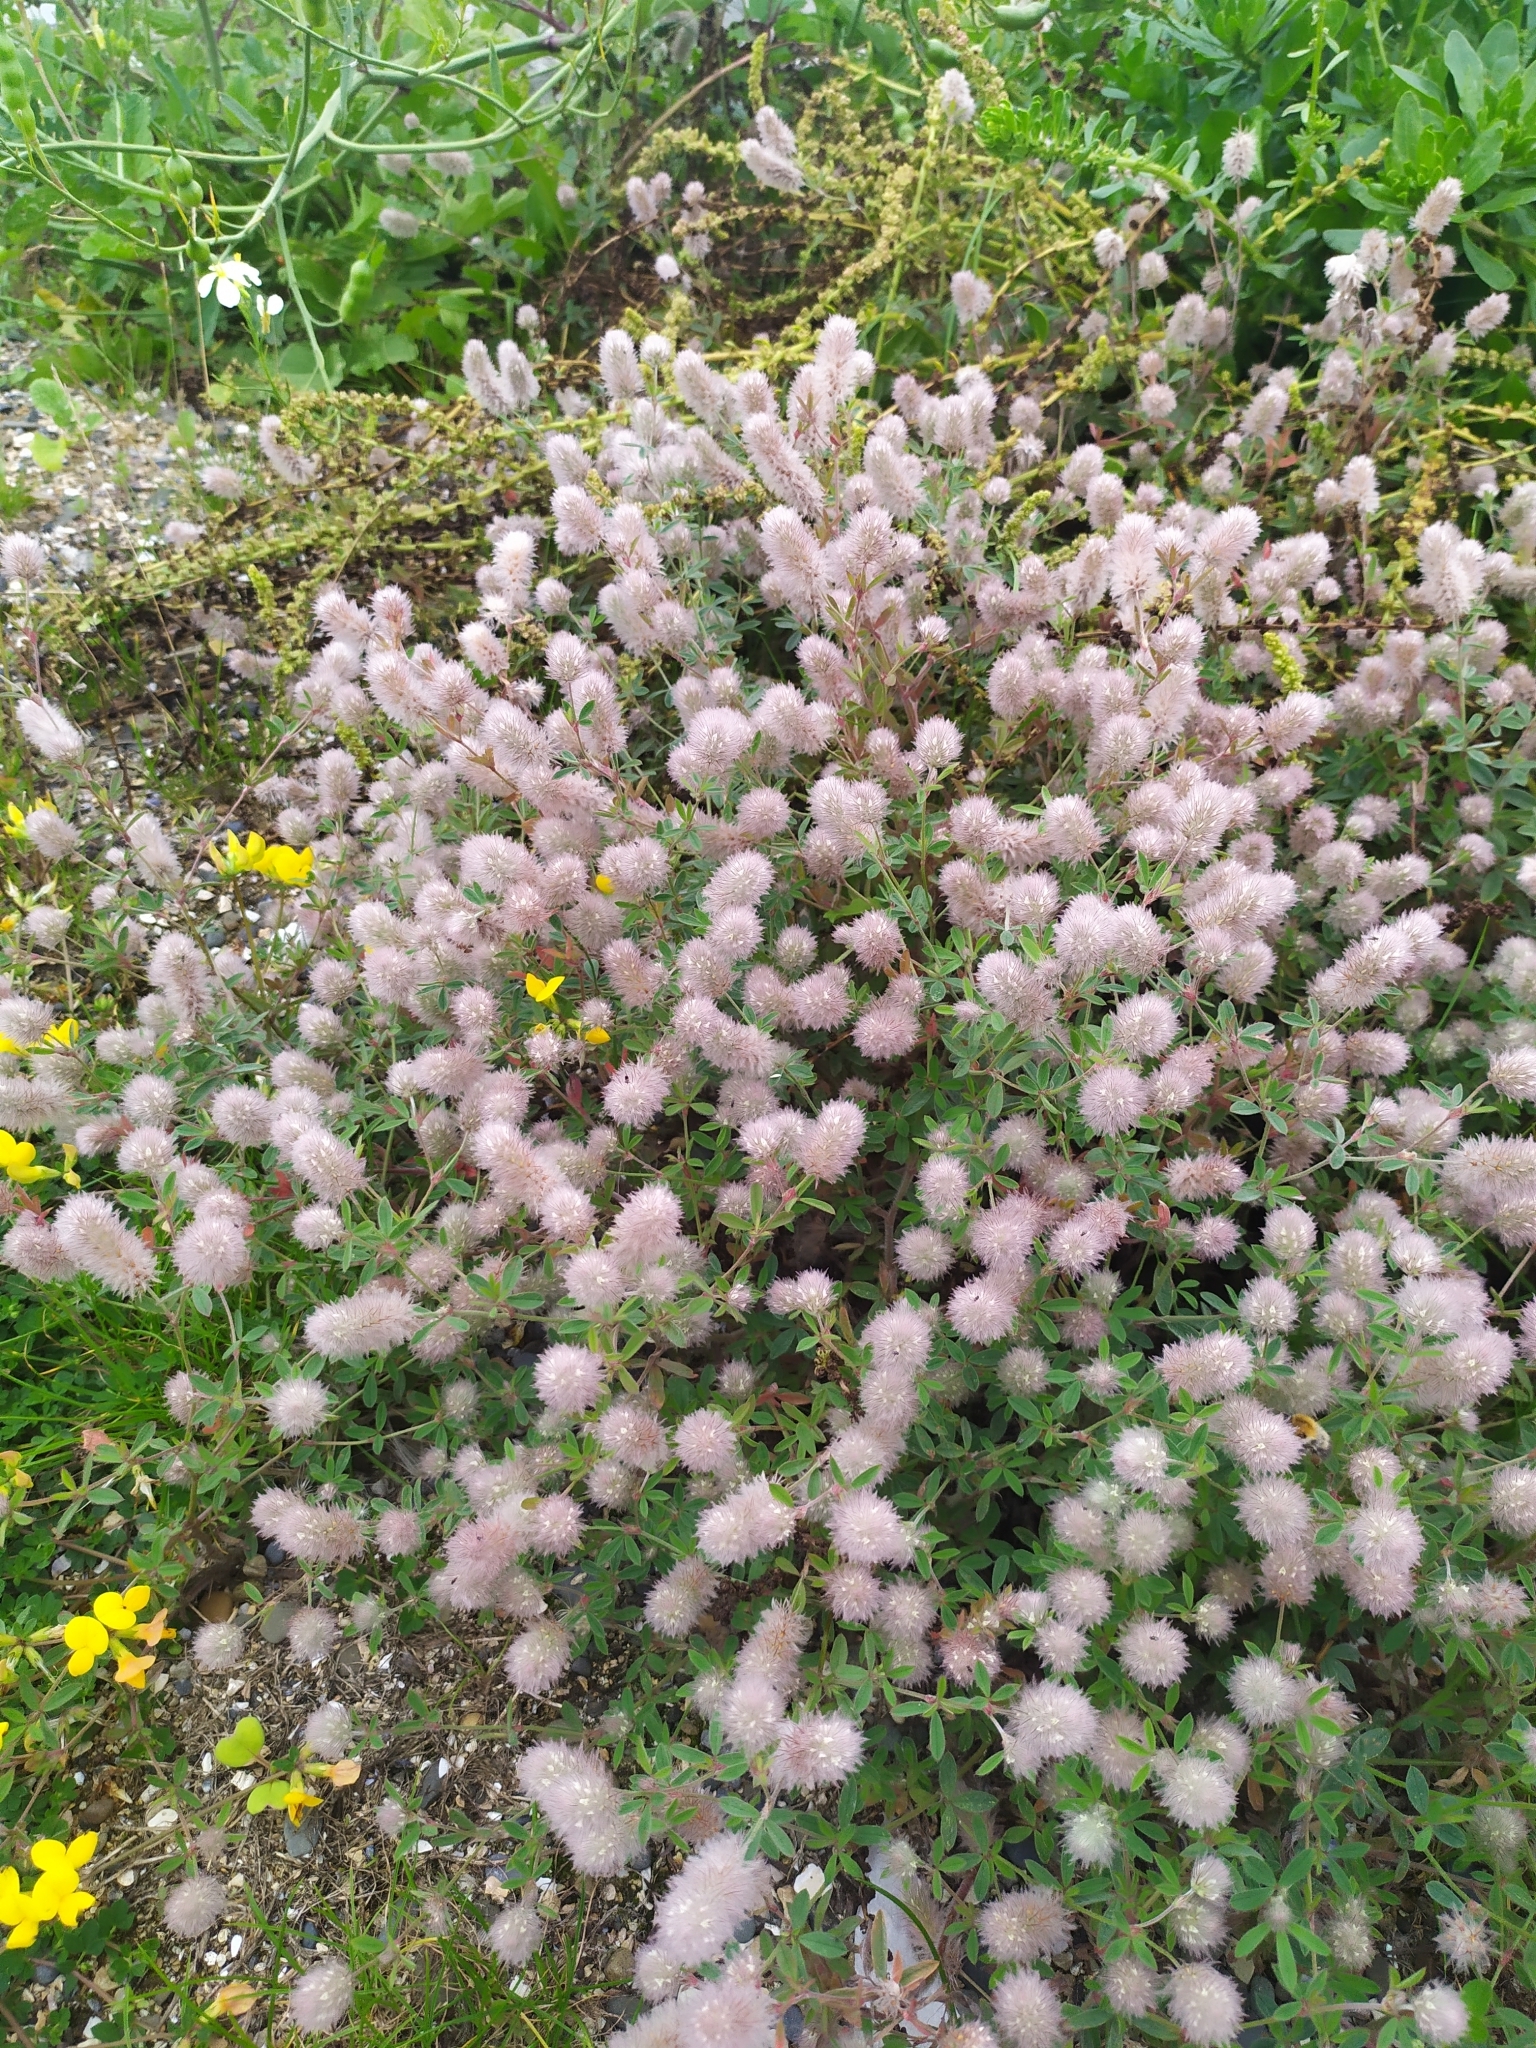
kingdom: Plantae
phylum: Tracheophyta
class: Magnoliopsida
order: Fabales
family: Fabaceae
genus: Trifolium
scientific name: Trifolium arvense
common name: Hare's-foot clover
